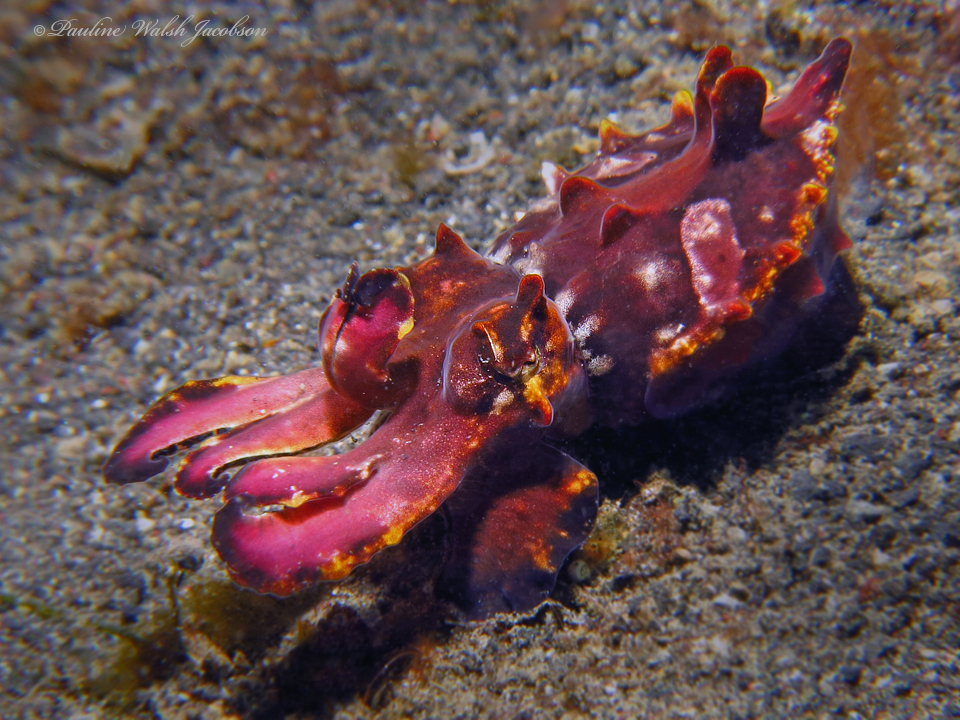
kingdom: Animalia
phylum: Mollusca
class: Cephalopoda
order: Sepiida
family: Sepiidae
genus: Ascarosepion
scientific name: Ascarosepion pfefferi
